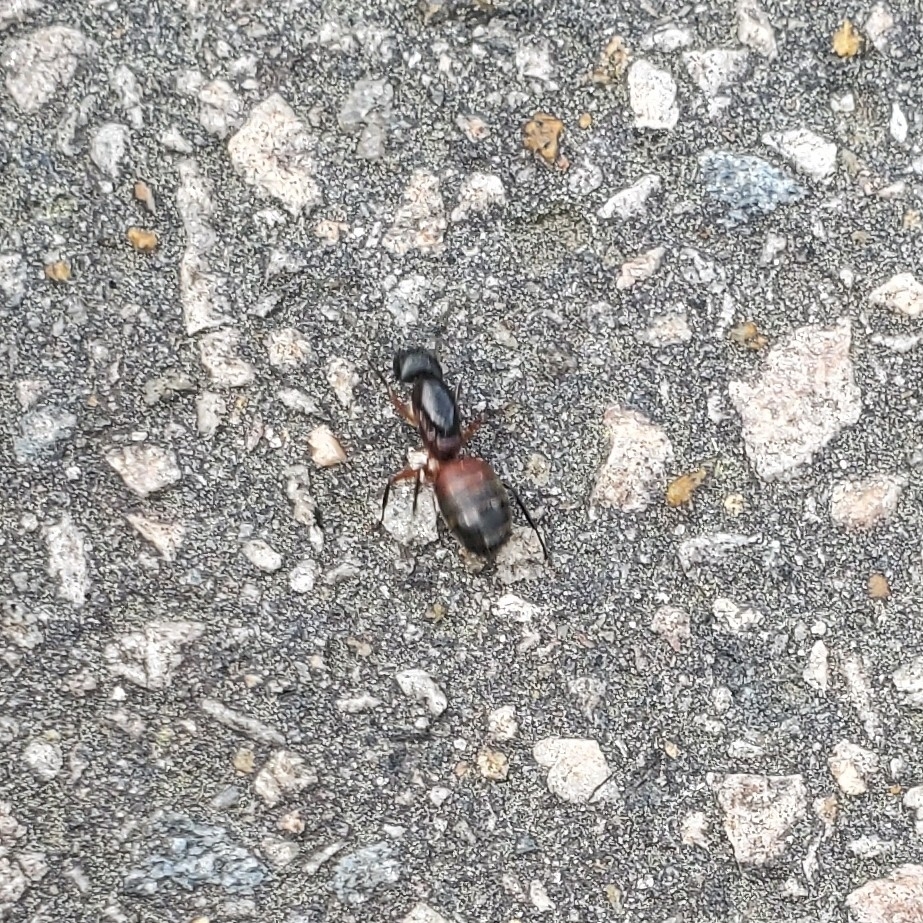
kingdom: Animalia
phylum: Arthropoda
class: Insecta
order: Hymenoptera
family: Formicidae
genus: Camponotus
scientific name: Camponotus chromaiodes
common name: Red carpenter ant
